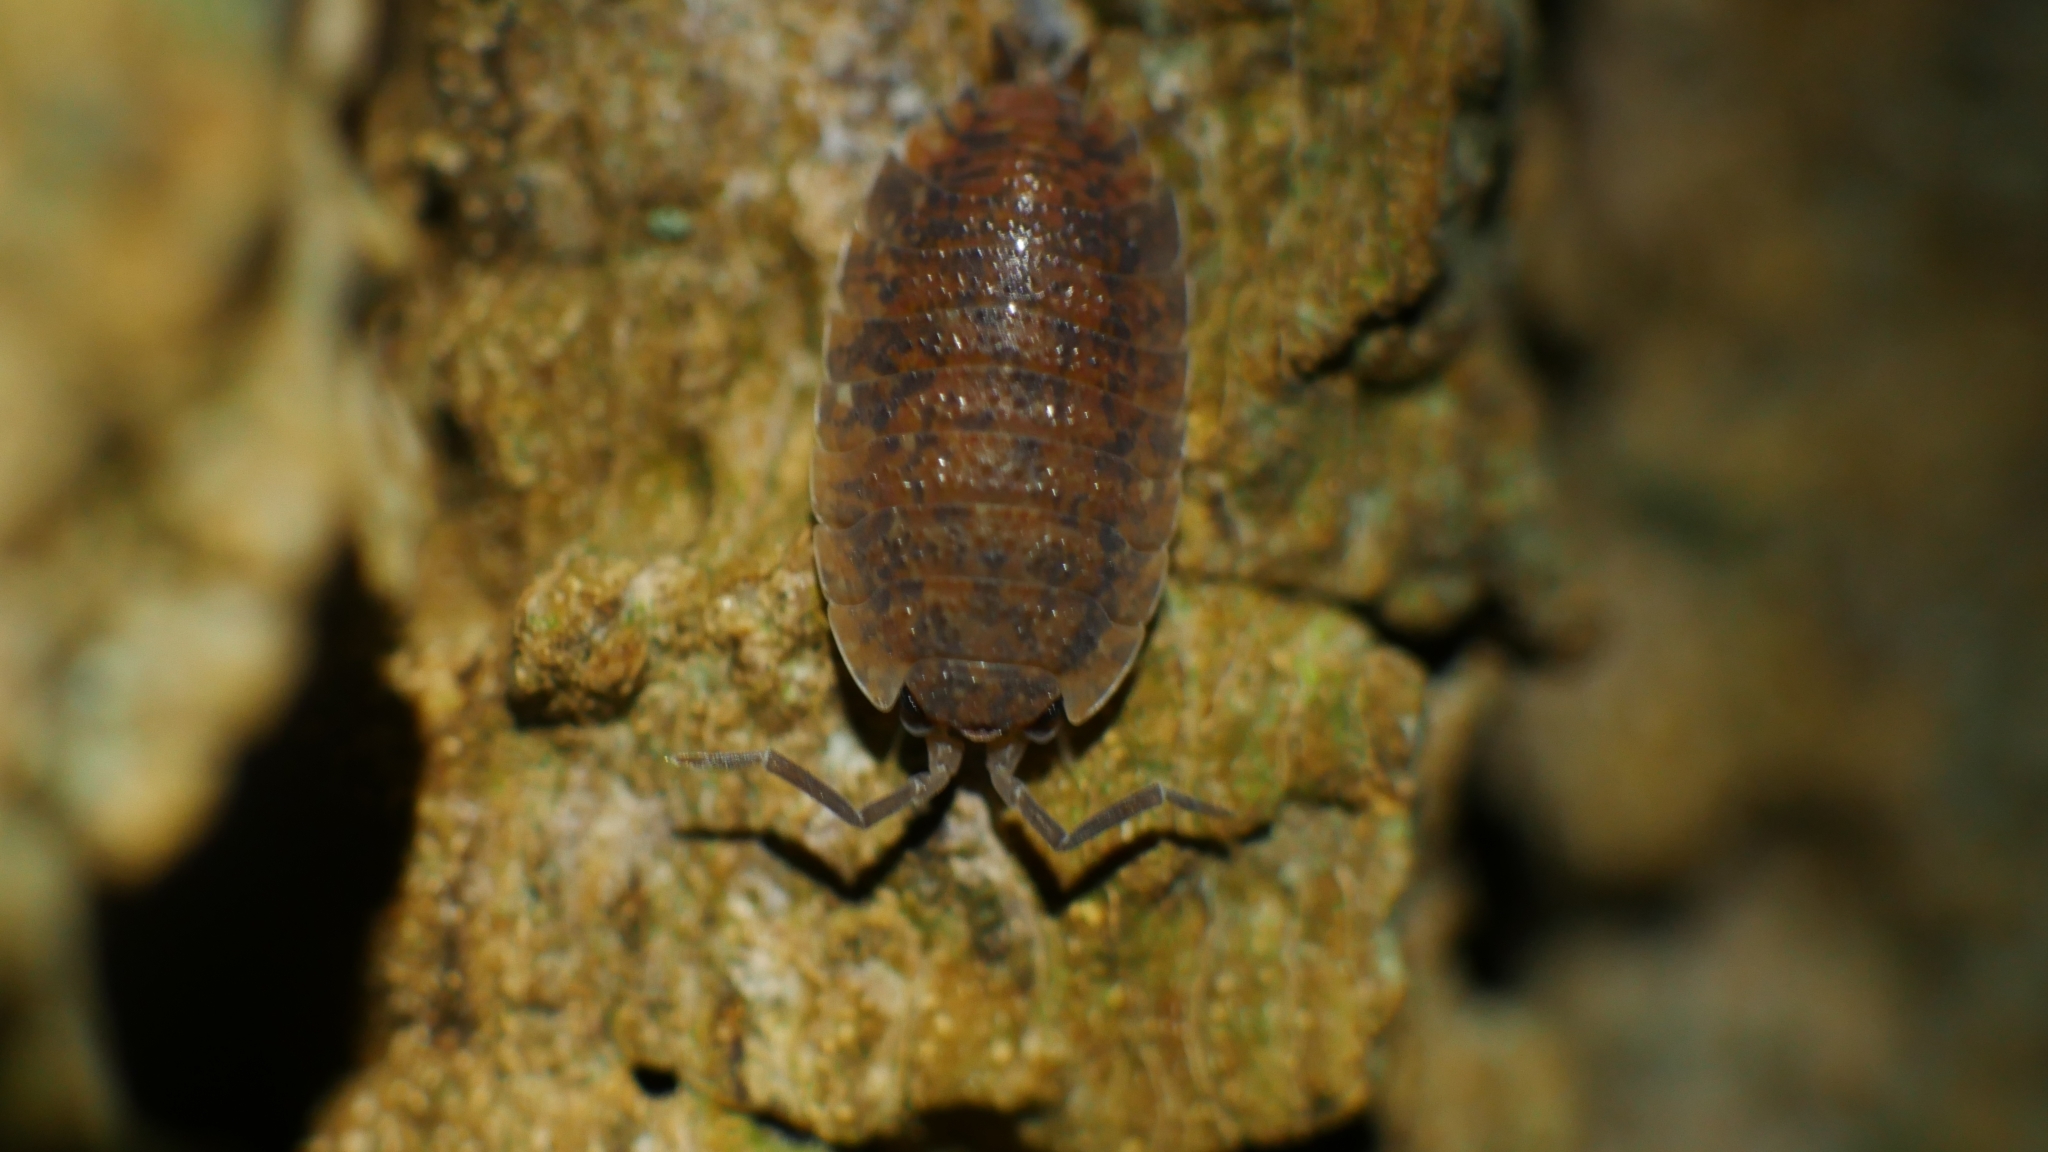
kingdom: Animalia
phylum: Arthropoda
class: Malacostraca
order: Isopoda
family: Porcellionidae
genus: Porcellio
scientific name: Porcellio scaber
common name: Common rough woodlouse
